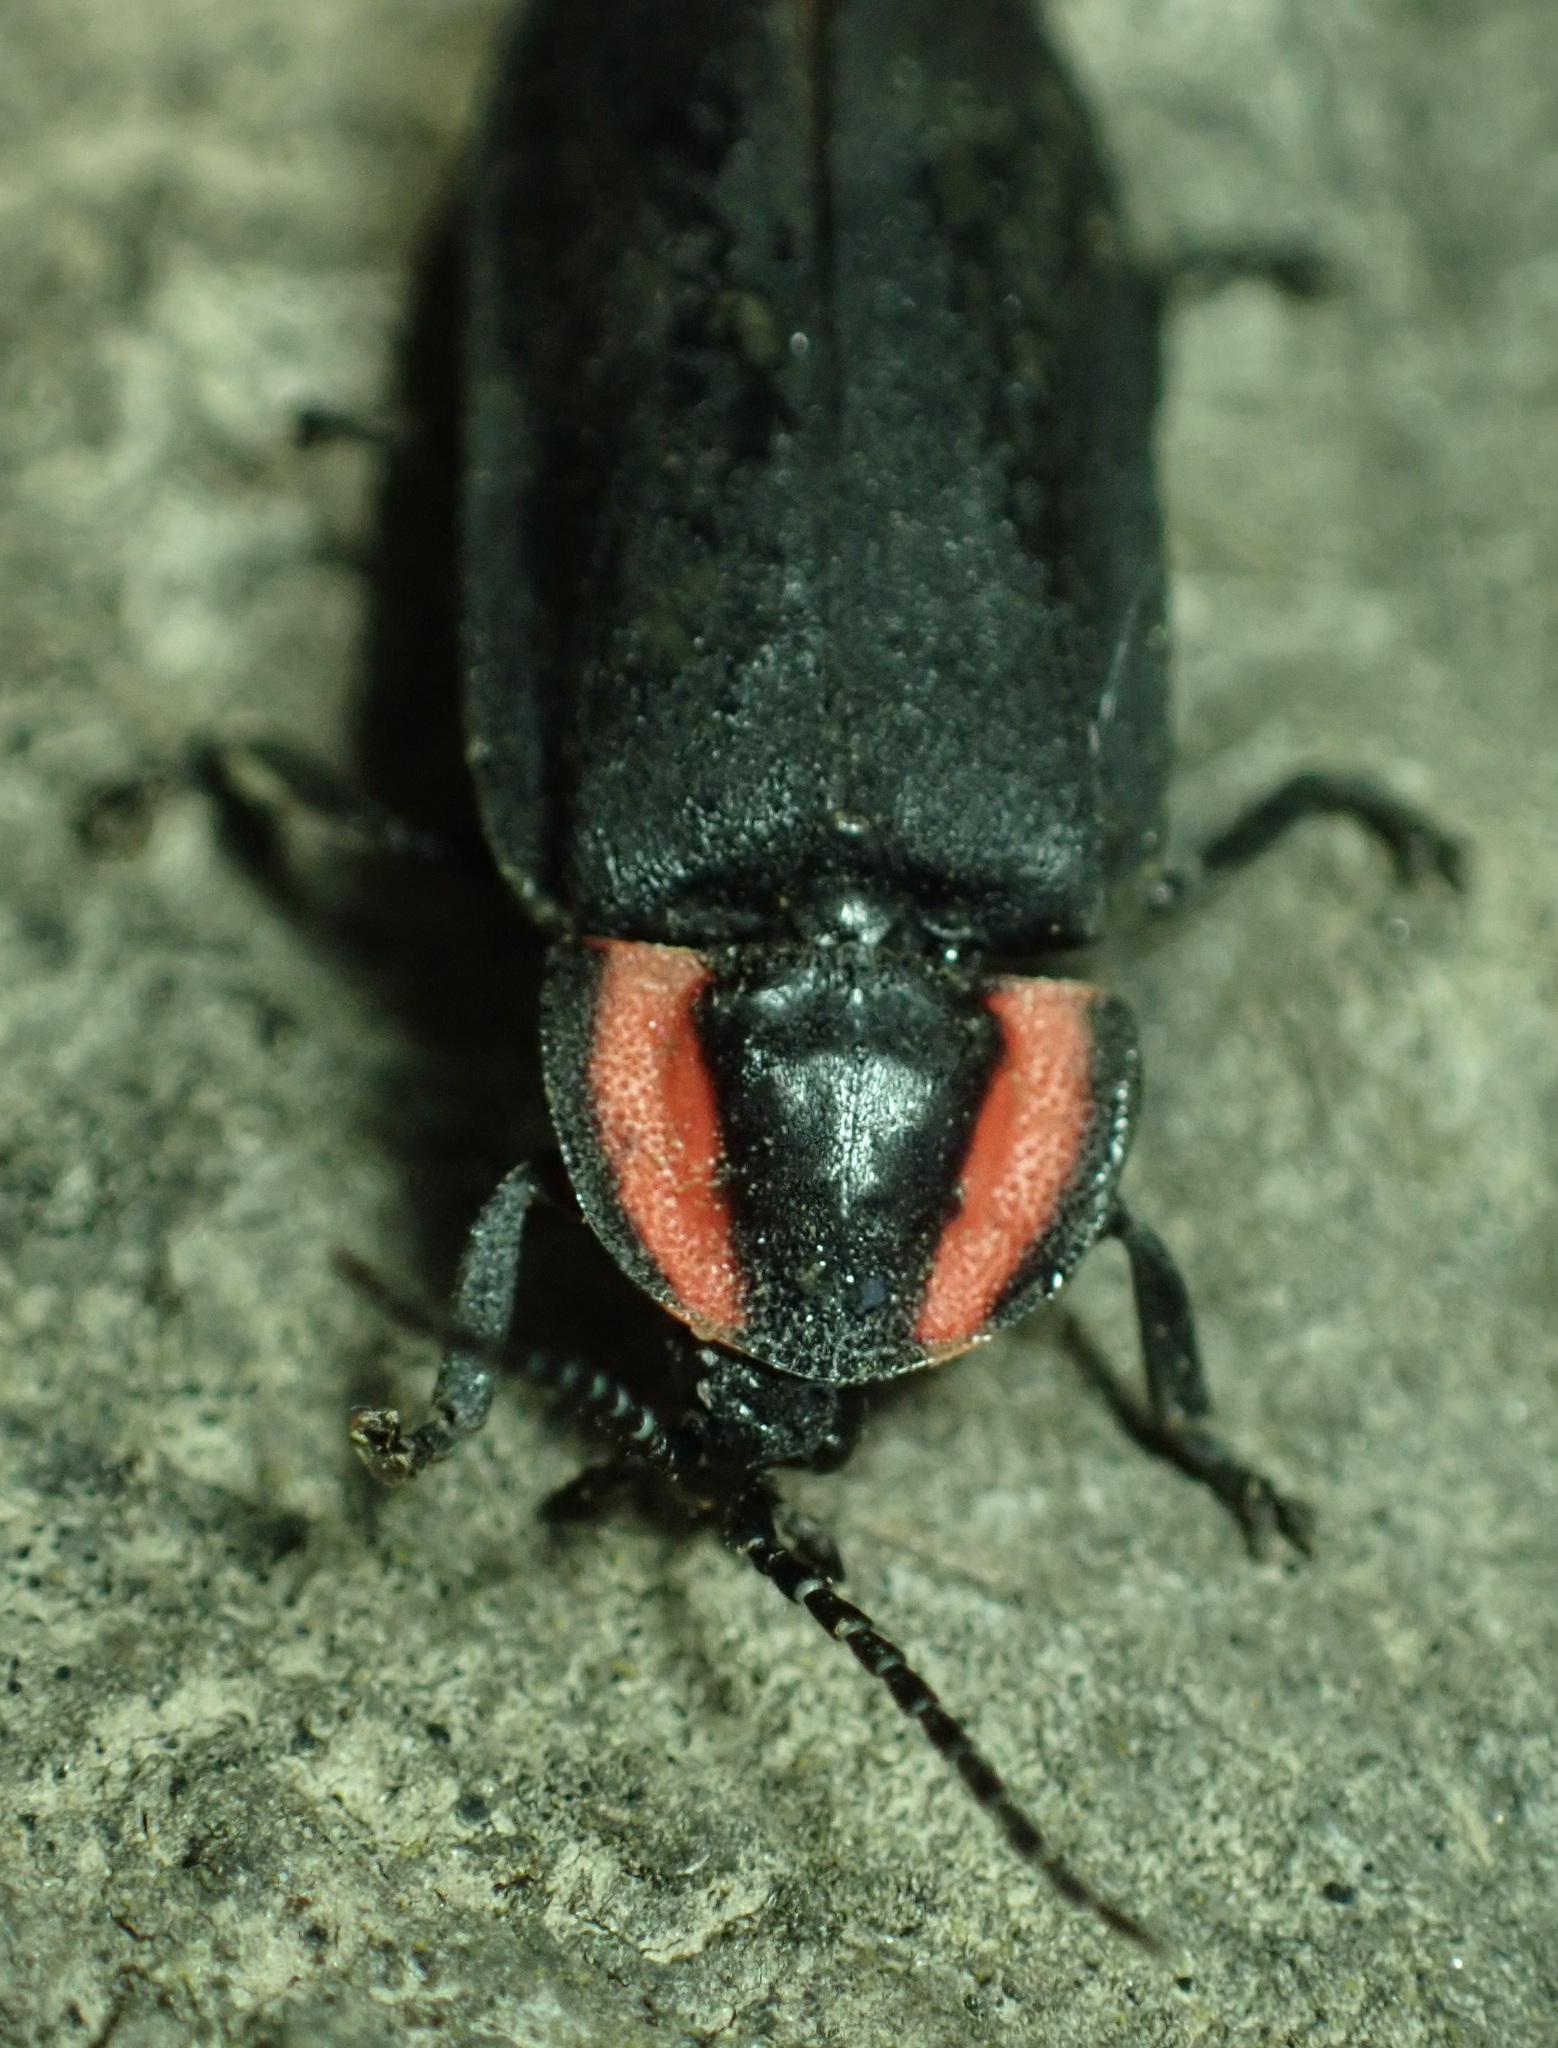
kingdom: Animalia
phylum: Arthropoda
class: Insecta
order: Coleoptera
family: Lampyridae
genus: Photinus
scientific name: Photinus californica
